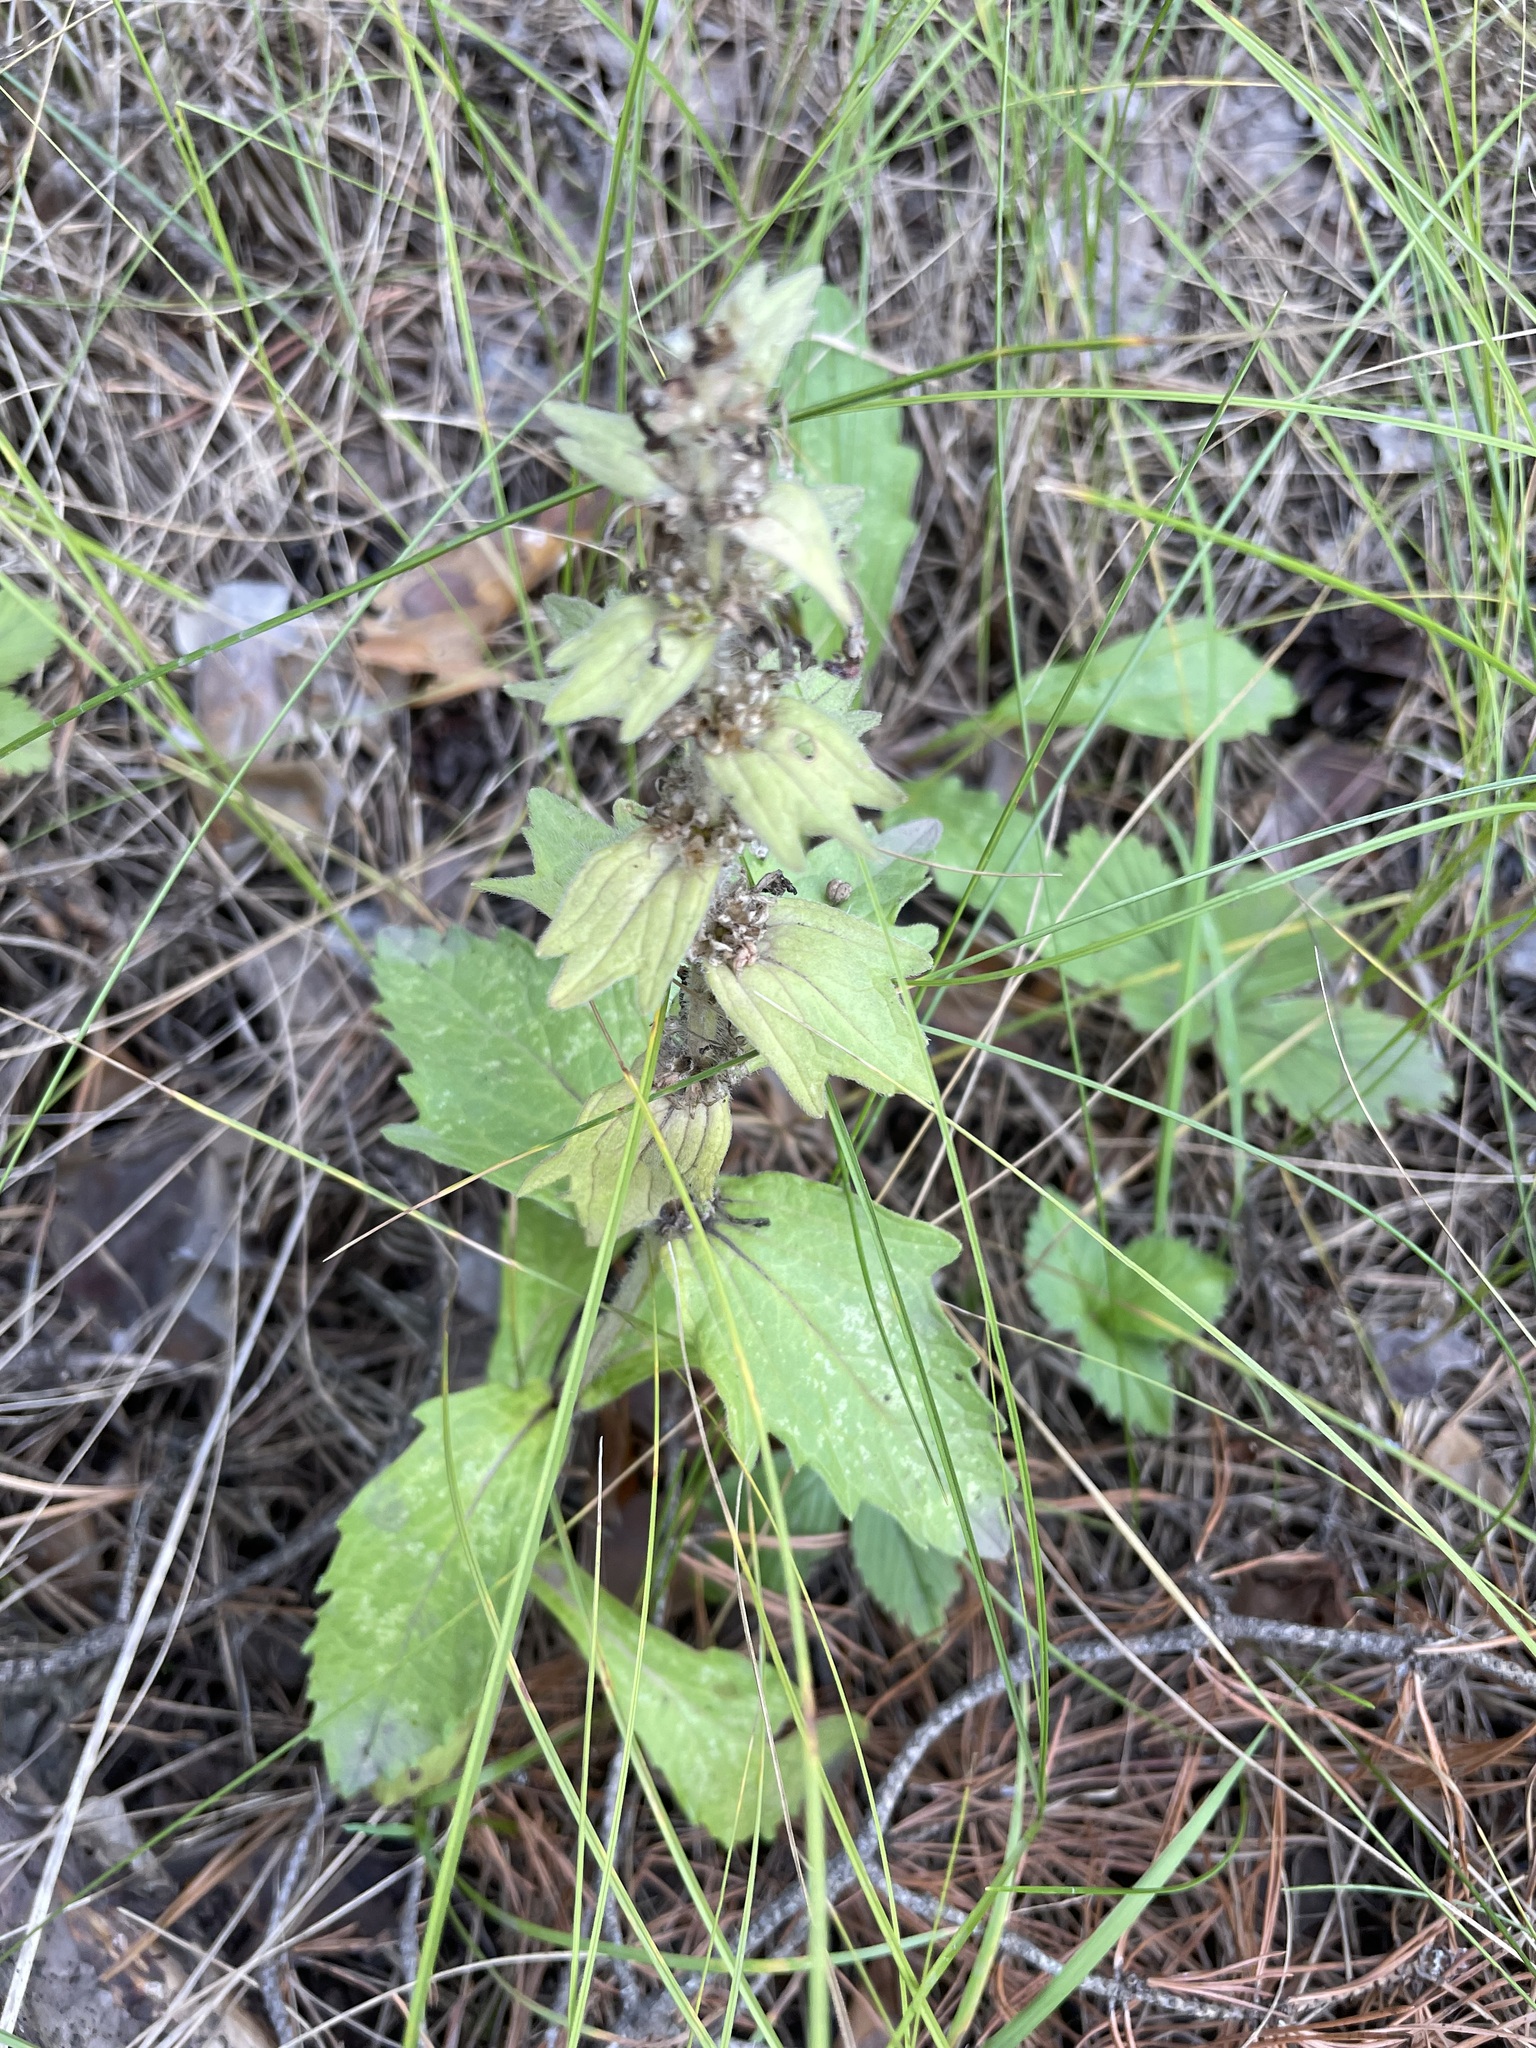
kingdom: Plantae
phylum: Tracheophyta
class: Magnoliopsida
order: Lamiales
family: Lamiaceae
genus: Ajuga
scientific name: Ajuga genevensis
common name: Blue bugle
